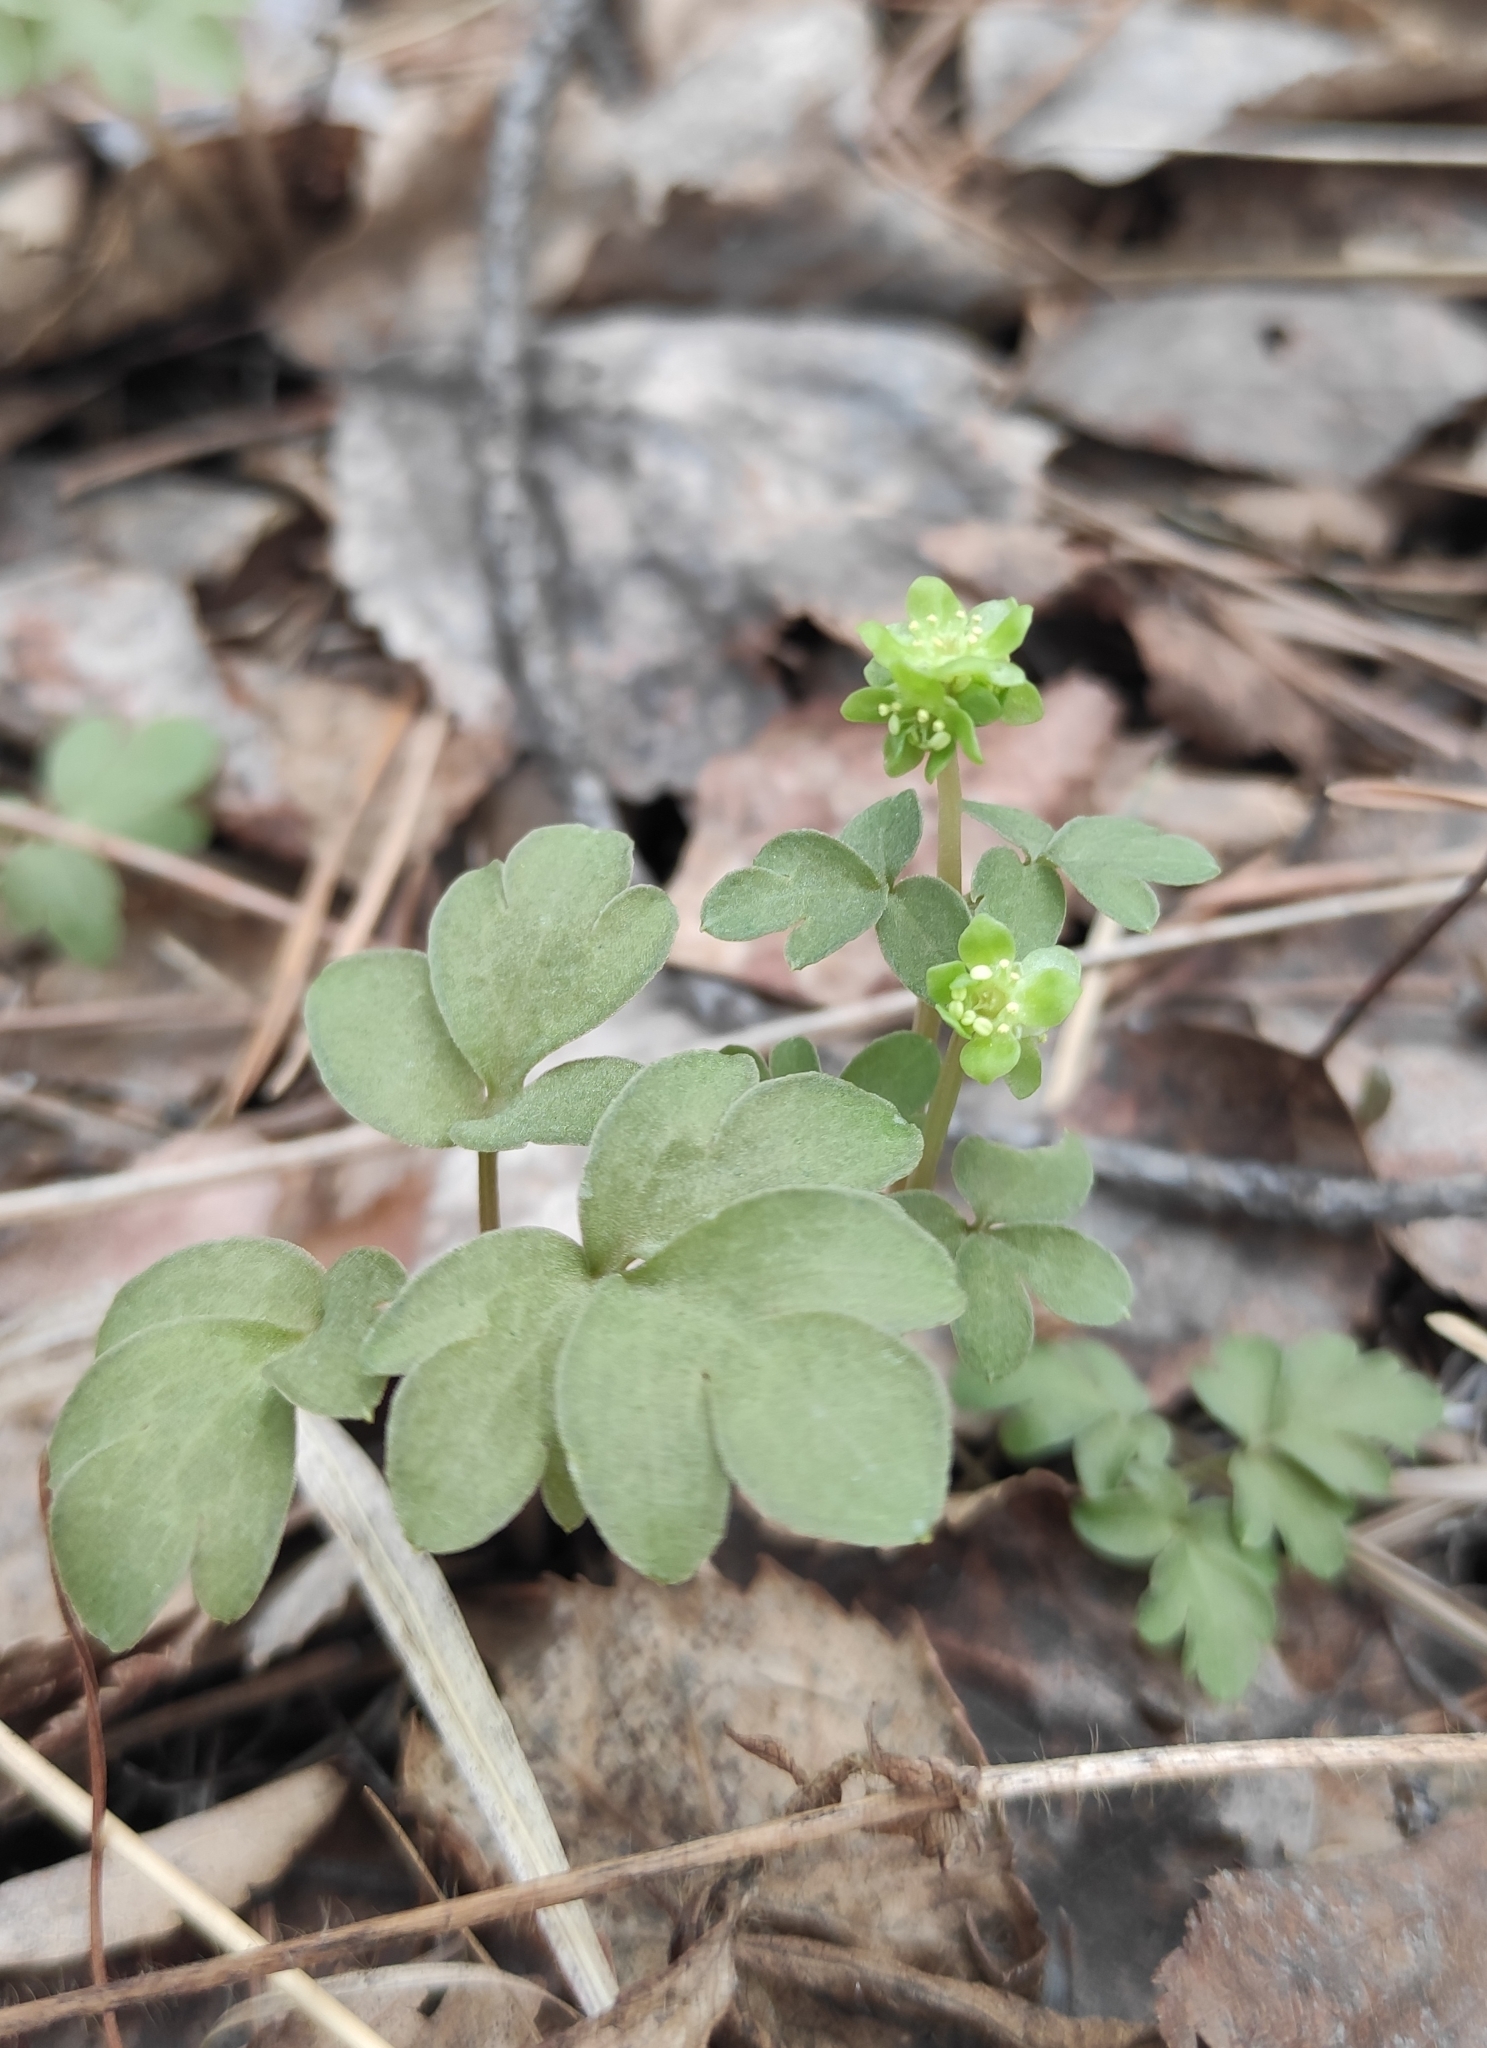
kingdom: Plantae
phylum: Tracheophyta
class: Magnoliopsida
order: Dipsacales
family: Viburnaceae
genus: Adoxa
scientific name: Adoxa moschatellina
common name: Moschatel
